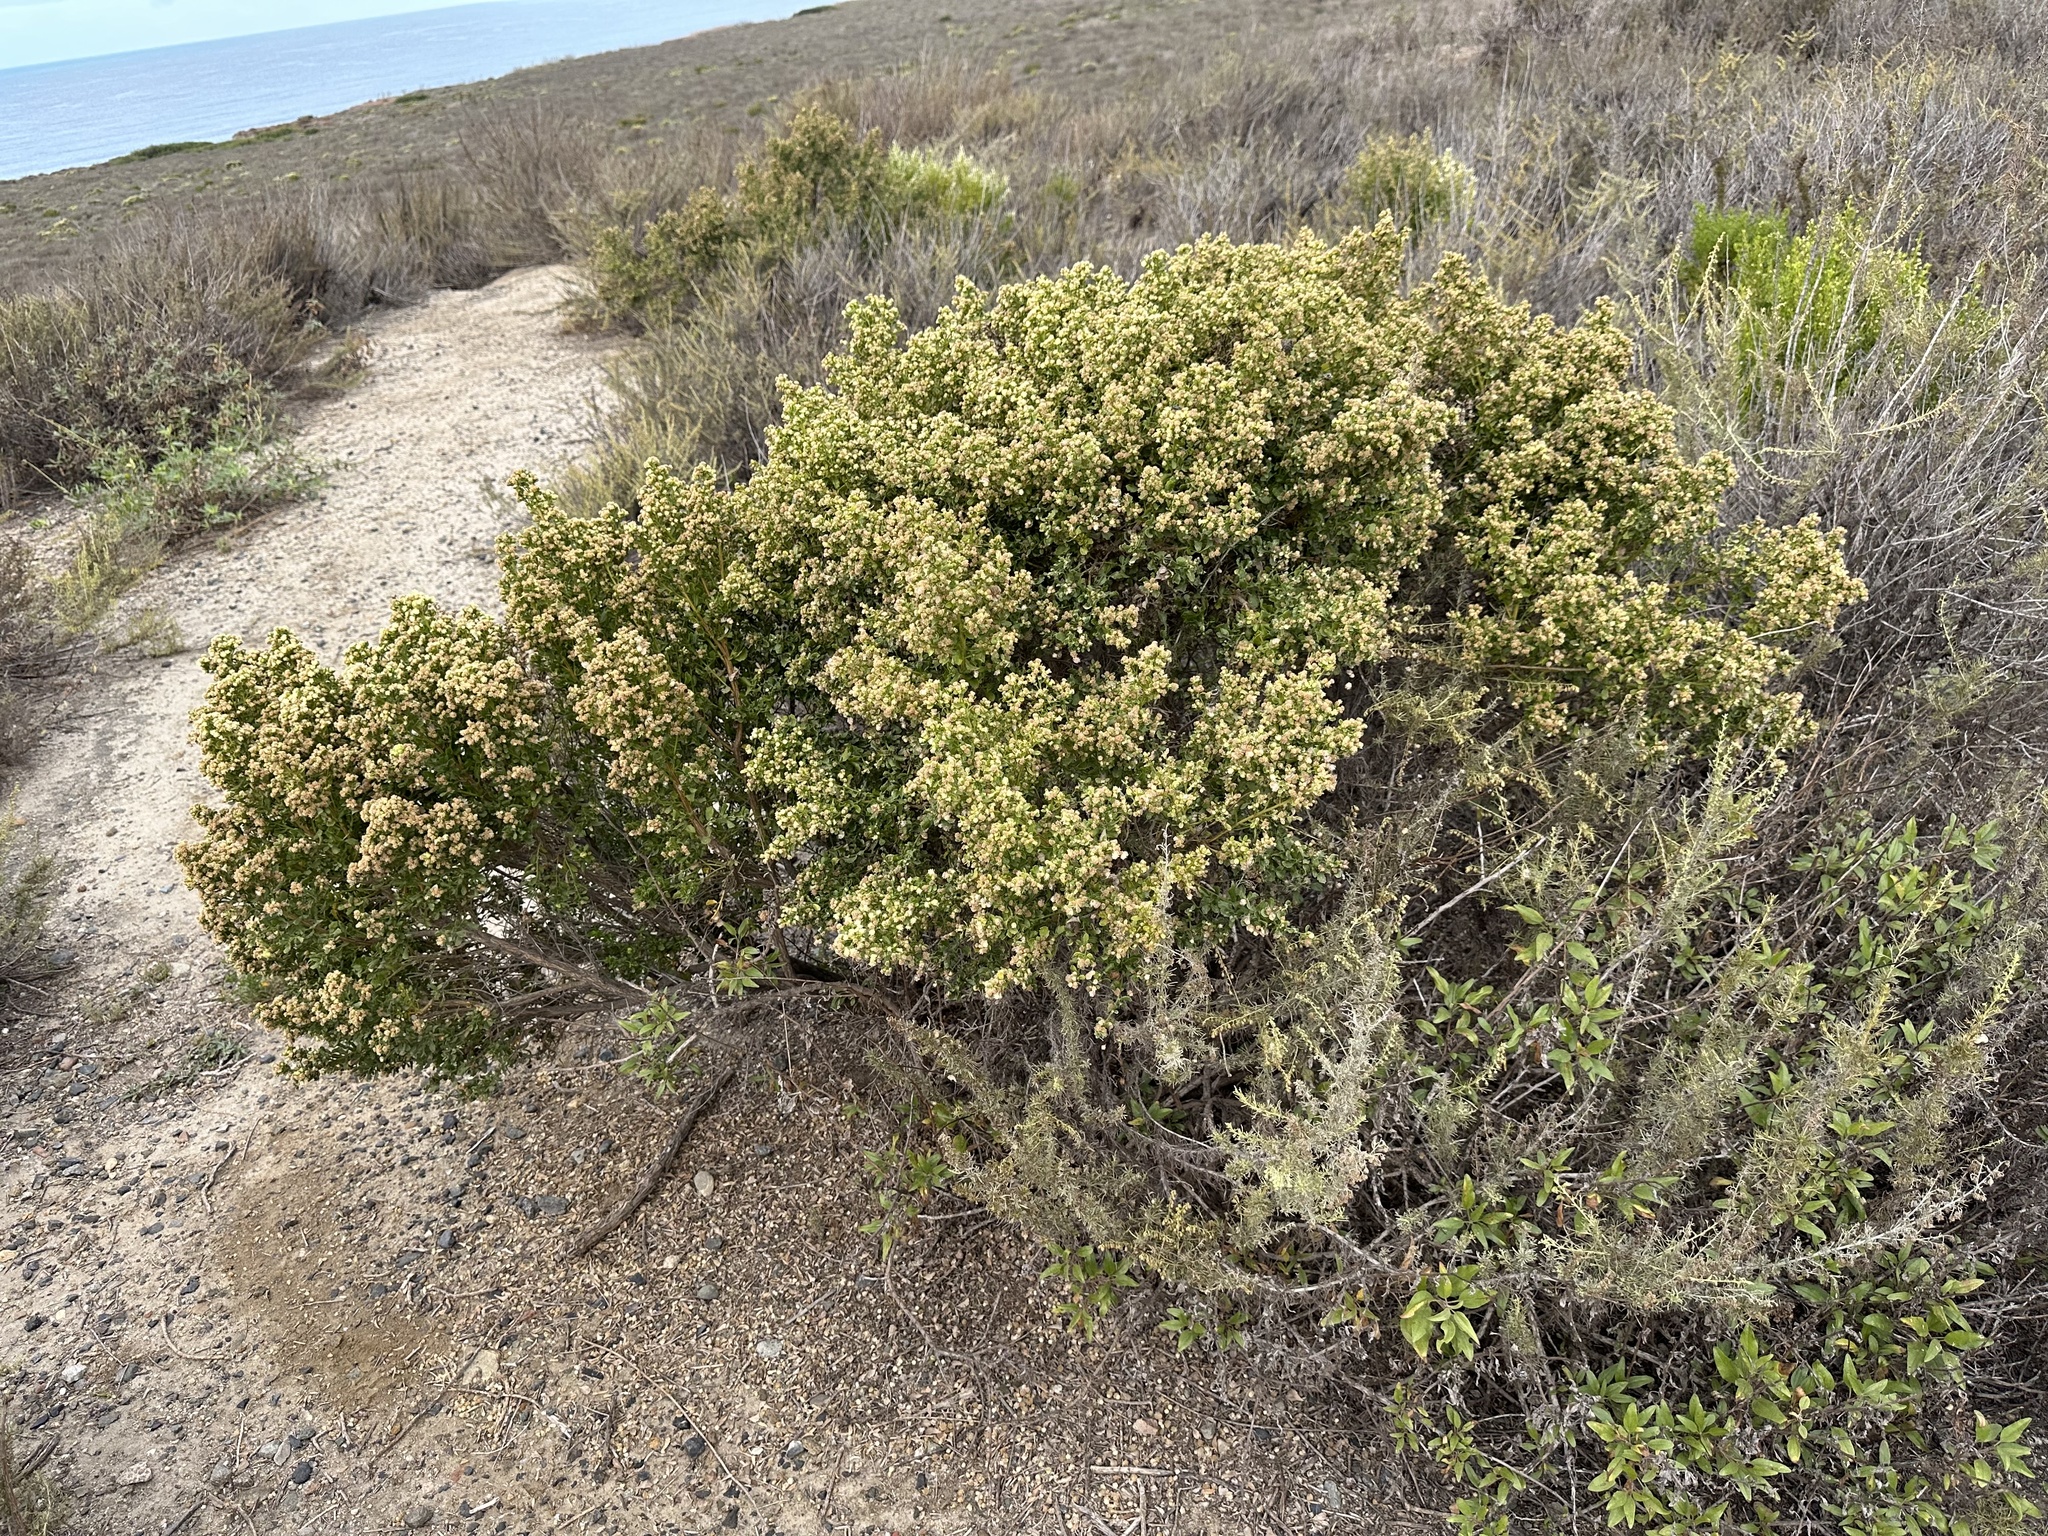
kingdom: Plantae
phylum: Tracheophyta
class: Magnoliopsida
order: Asterales
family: Asteraceae
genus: Baccharis
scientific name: Baccharis pilularis
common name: Coyotebrush
